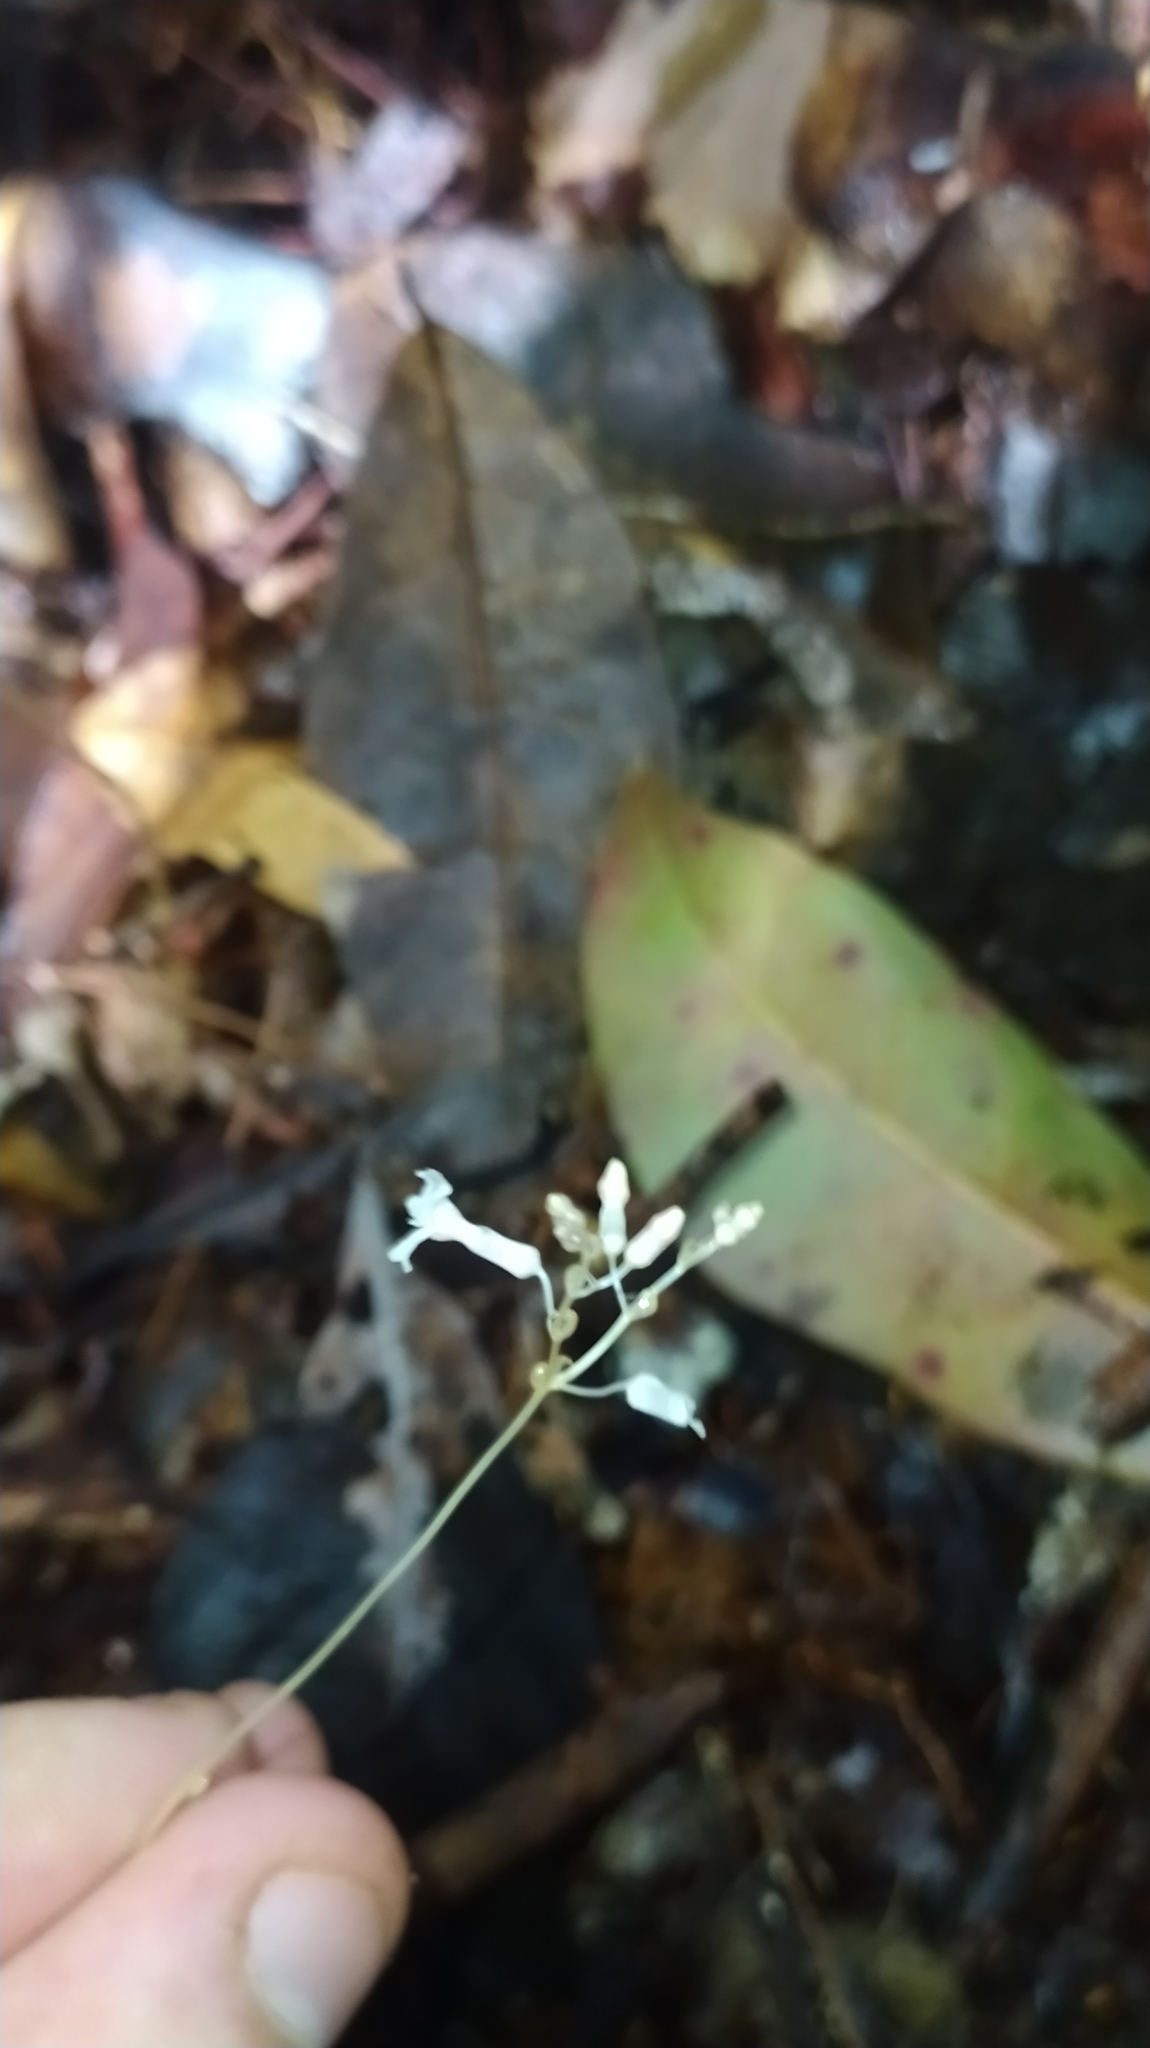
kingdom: Plantae
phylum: Tracheophyta
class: Liliopsida
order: Dioscoreales
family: Burmanniaceae
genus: Gymnosiphon
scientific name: Gymnosiphon breviflorus
